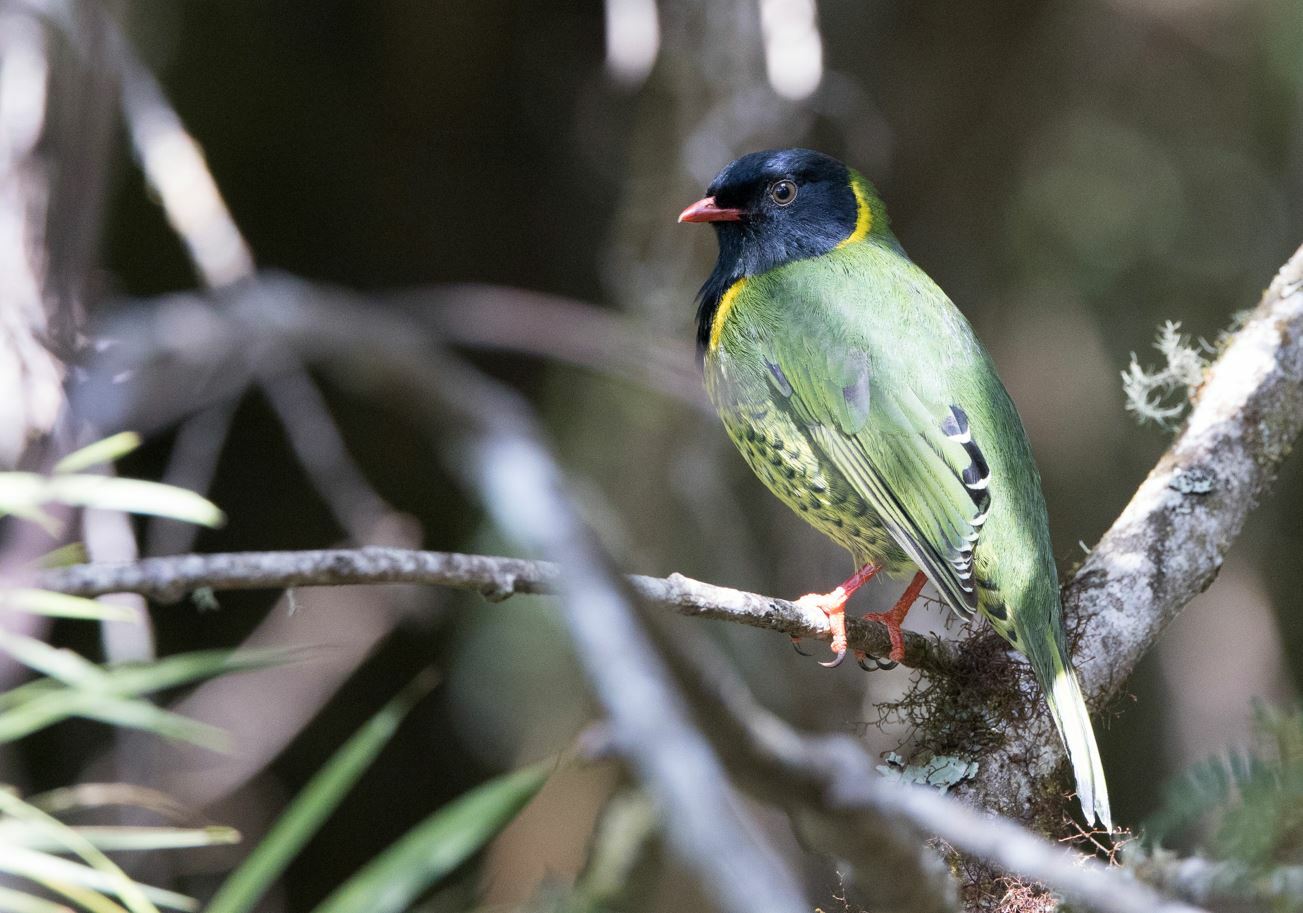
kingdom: Animalia
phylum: Chordata
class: Aves
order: Passeriformes
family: Cotingidae
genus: Pipreola
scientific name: Pipreola intermedia
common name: Band-tailed fruiteater
